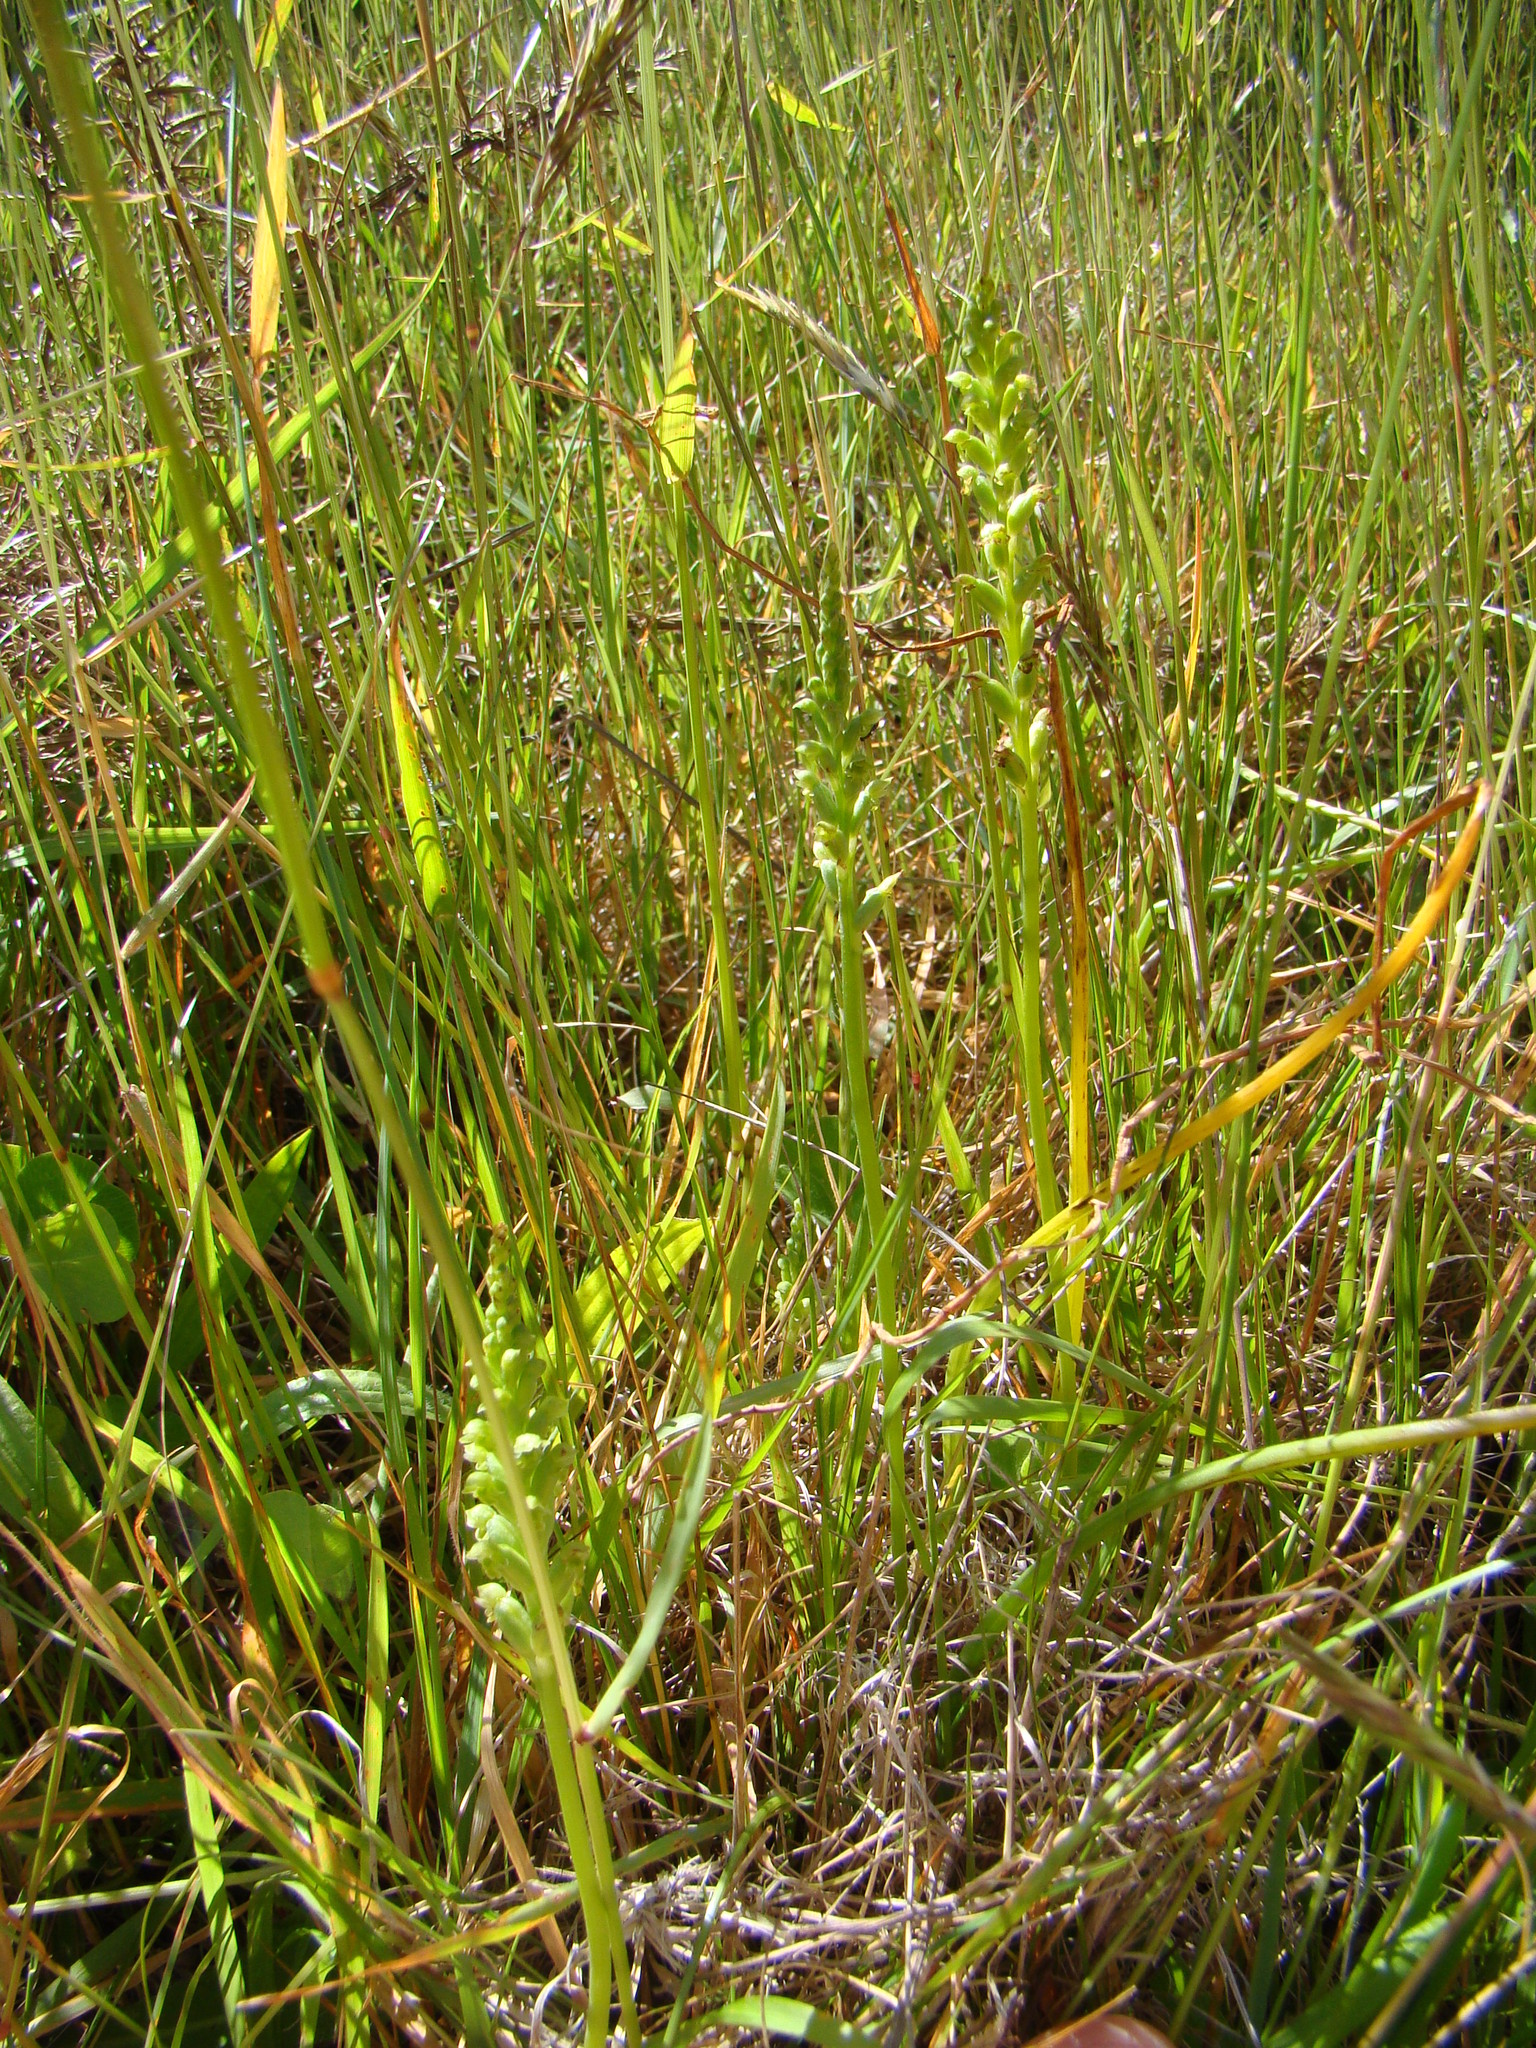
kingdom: Plantae
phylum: Tracheophyta
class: Liliopsida
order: Asparagales
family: Orchidaceae
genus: Microtis
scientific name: Microtis unifolia
